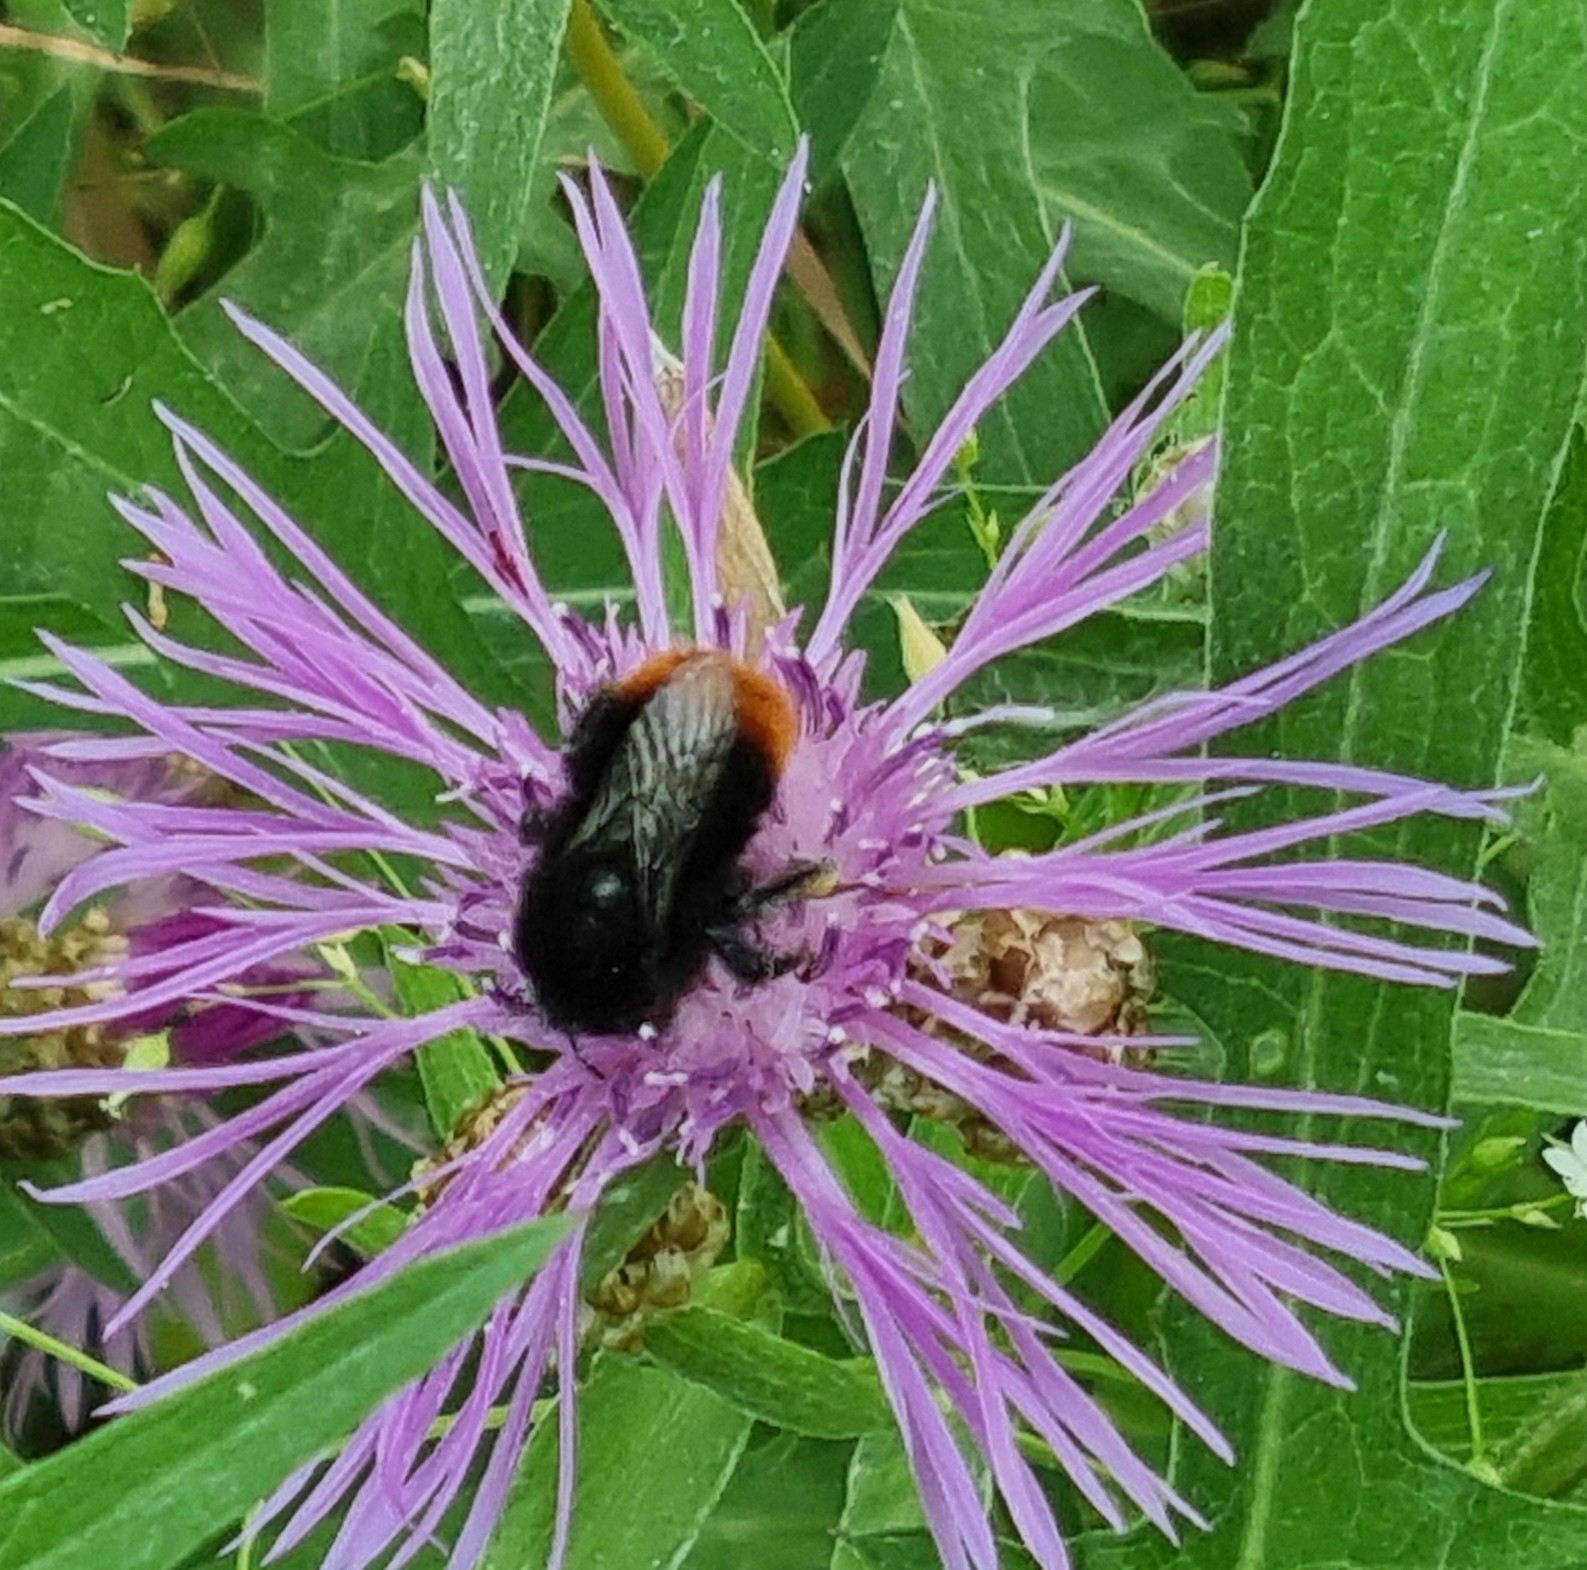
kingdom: Animalia
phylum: Arthropoda
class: Insecta
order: Hymenoptera
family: Apidae
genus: Bombus
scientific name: Bombus lapidarius
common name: Large red-tailed humble-bee
